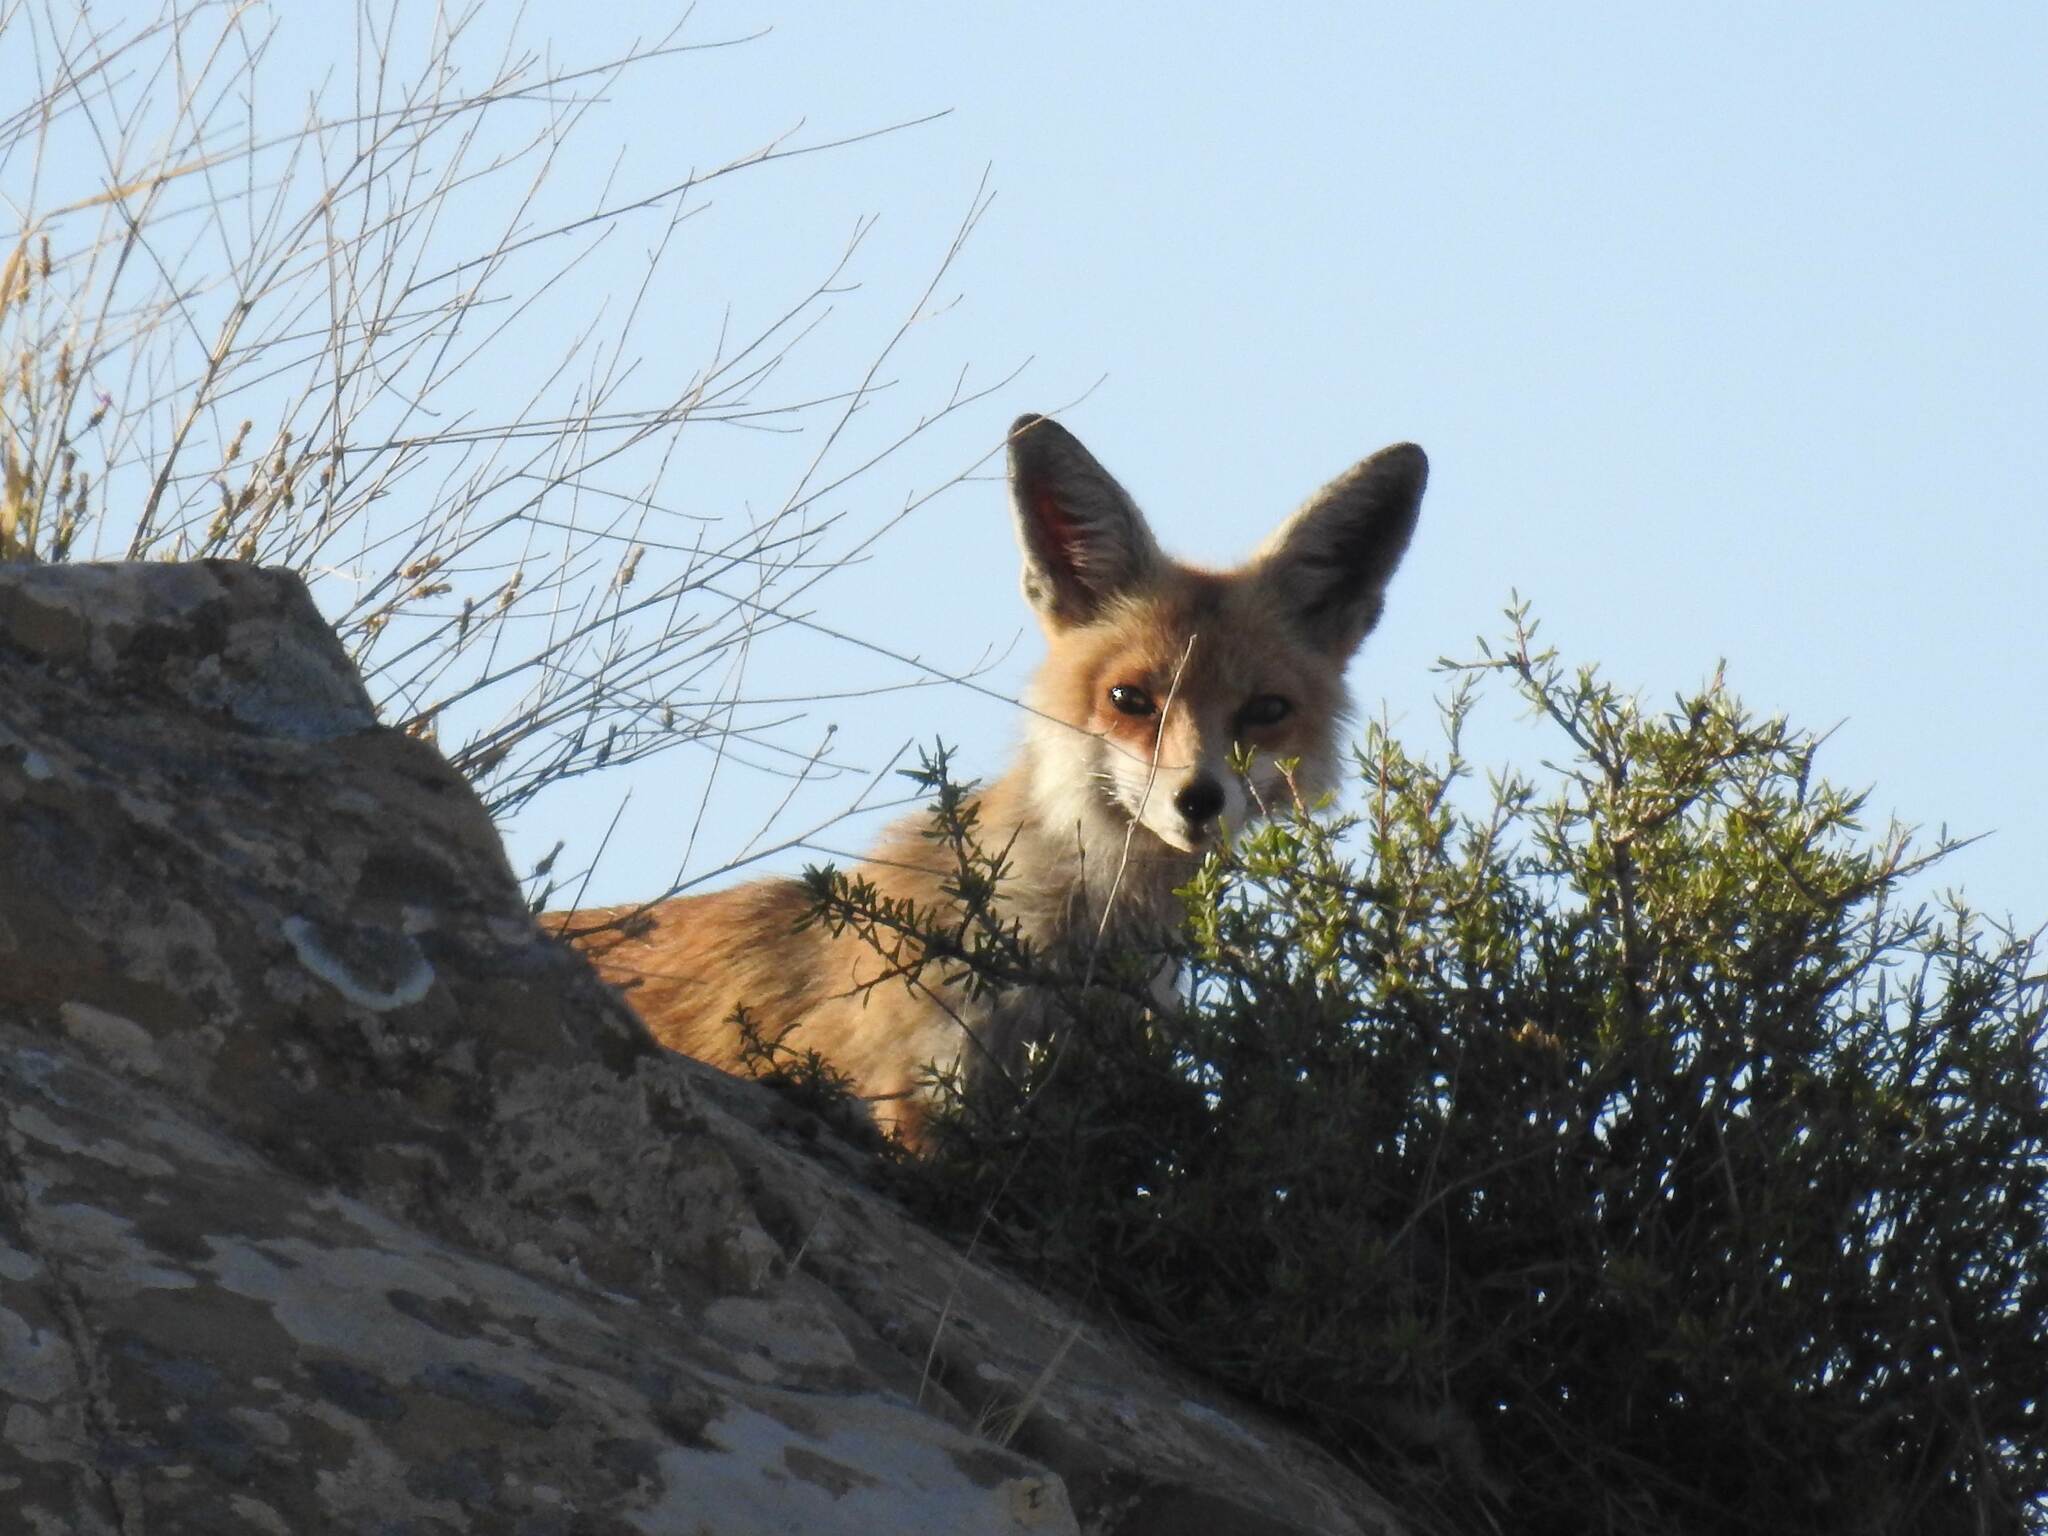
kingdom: Animalia
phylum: Chordata
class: Mammalia
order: Carnivora
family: Canidae
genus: Vulpes
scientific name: Vulpes vulpes
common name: Red fox
